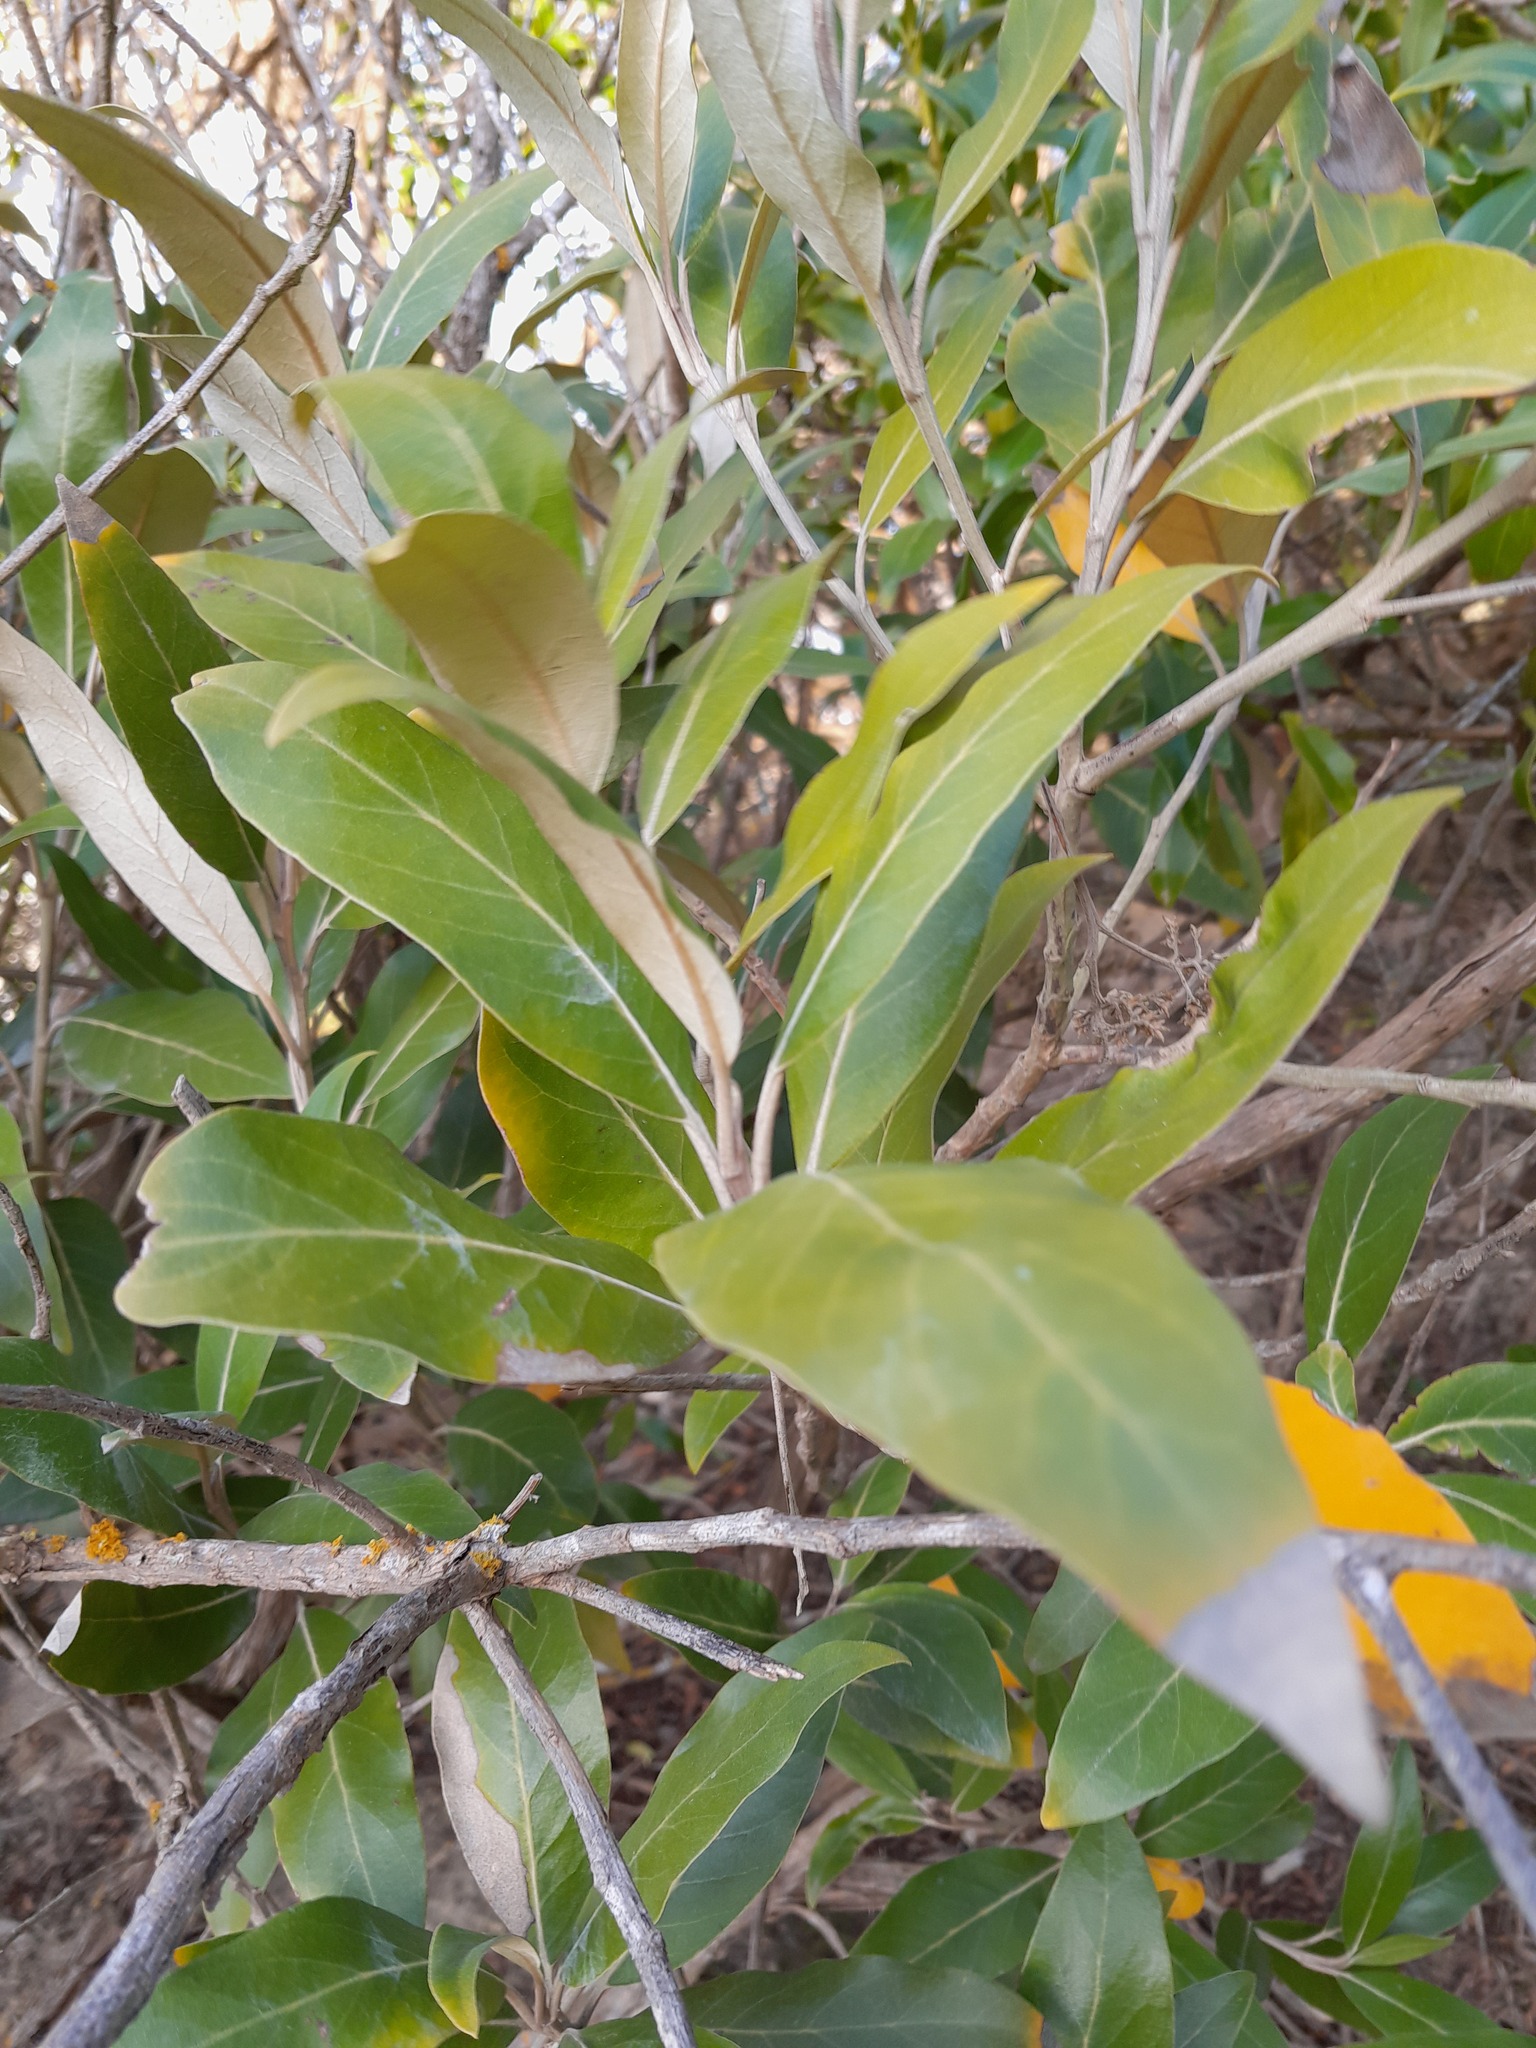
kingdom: Plantae
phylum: Tracheophyta
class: Magnoliopsida
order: Asterales
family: Asteraceae
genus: Olearia
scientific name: Olearia avicenniifolia
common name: Mangrove-leaf daisybush
